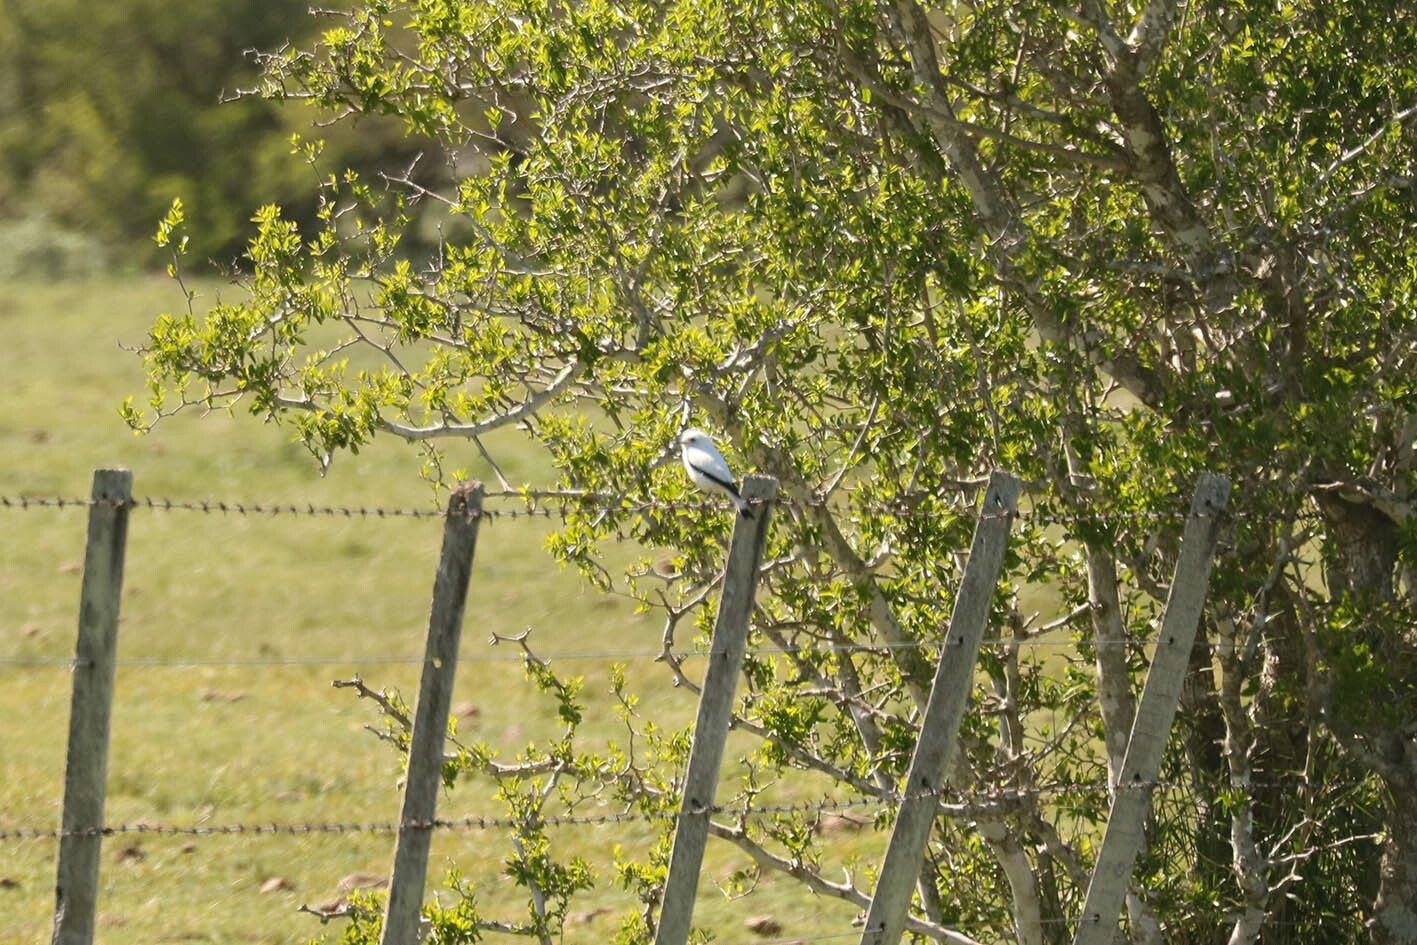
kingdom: Animalia
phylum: Chordata
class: Aves
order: Passeriformes
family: Tyrannidae
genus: Xolmis
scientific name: Xolmis irupero
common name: White monjita
